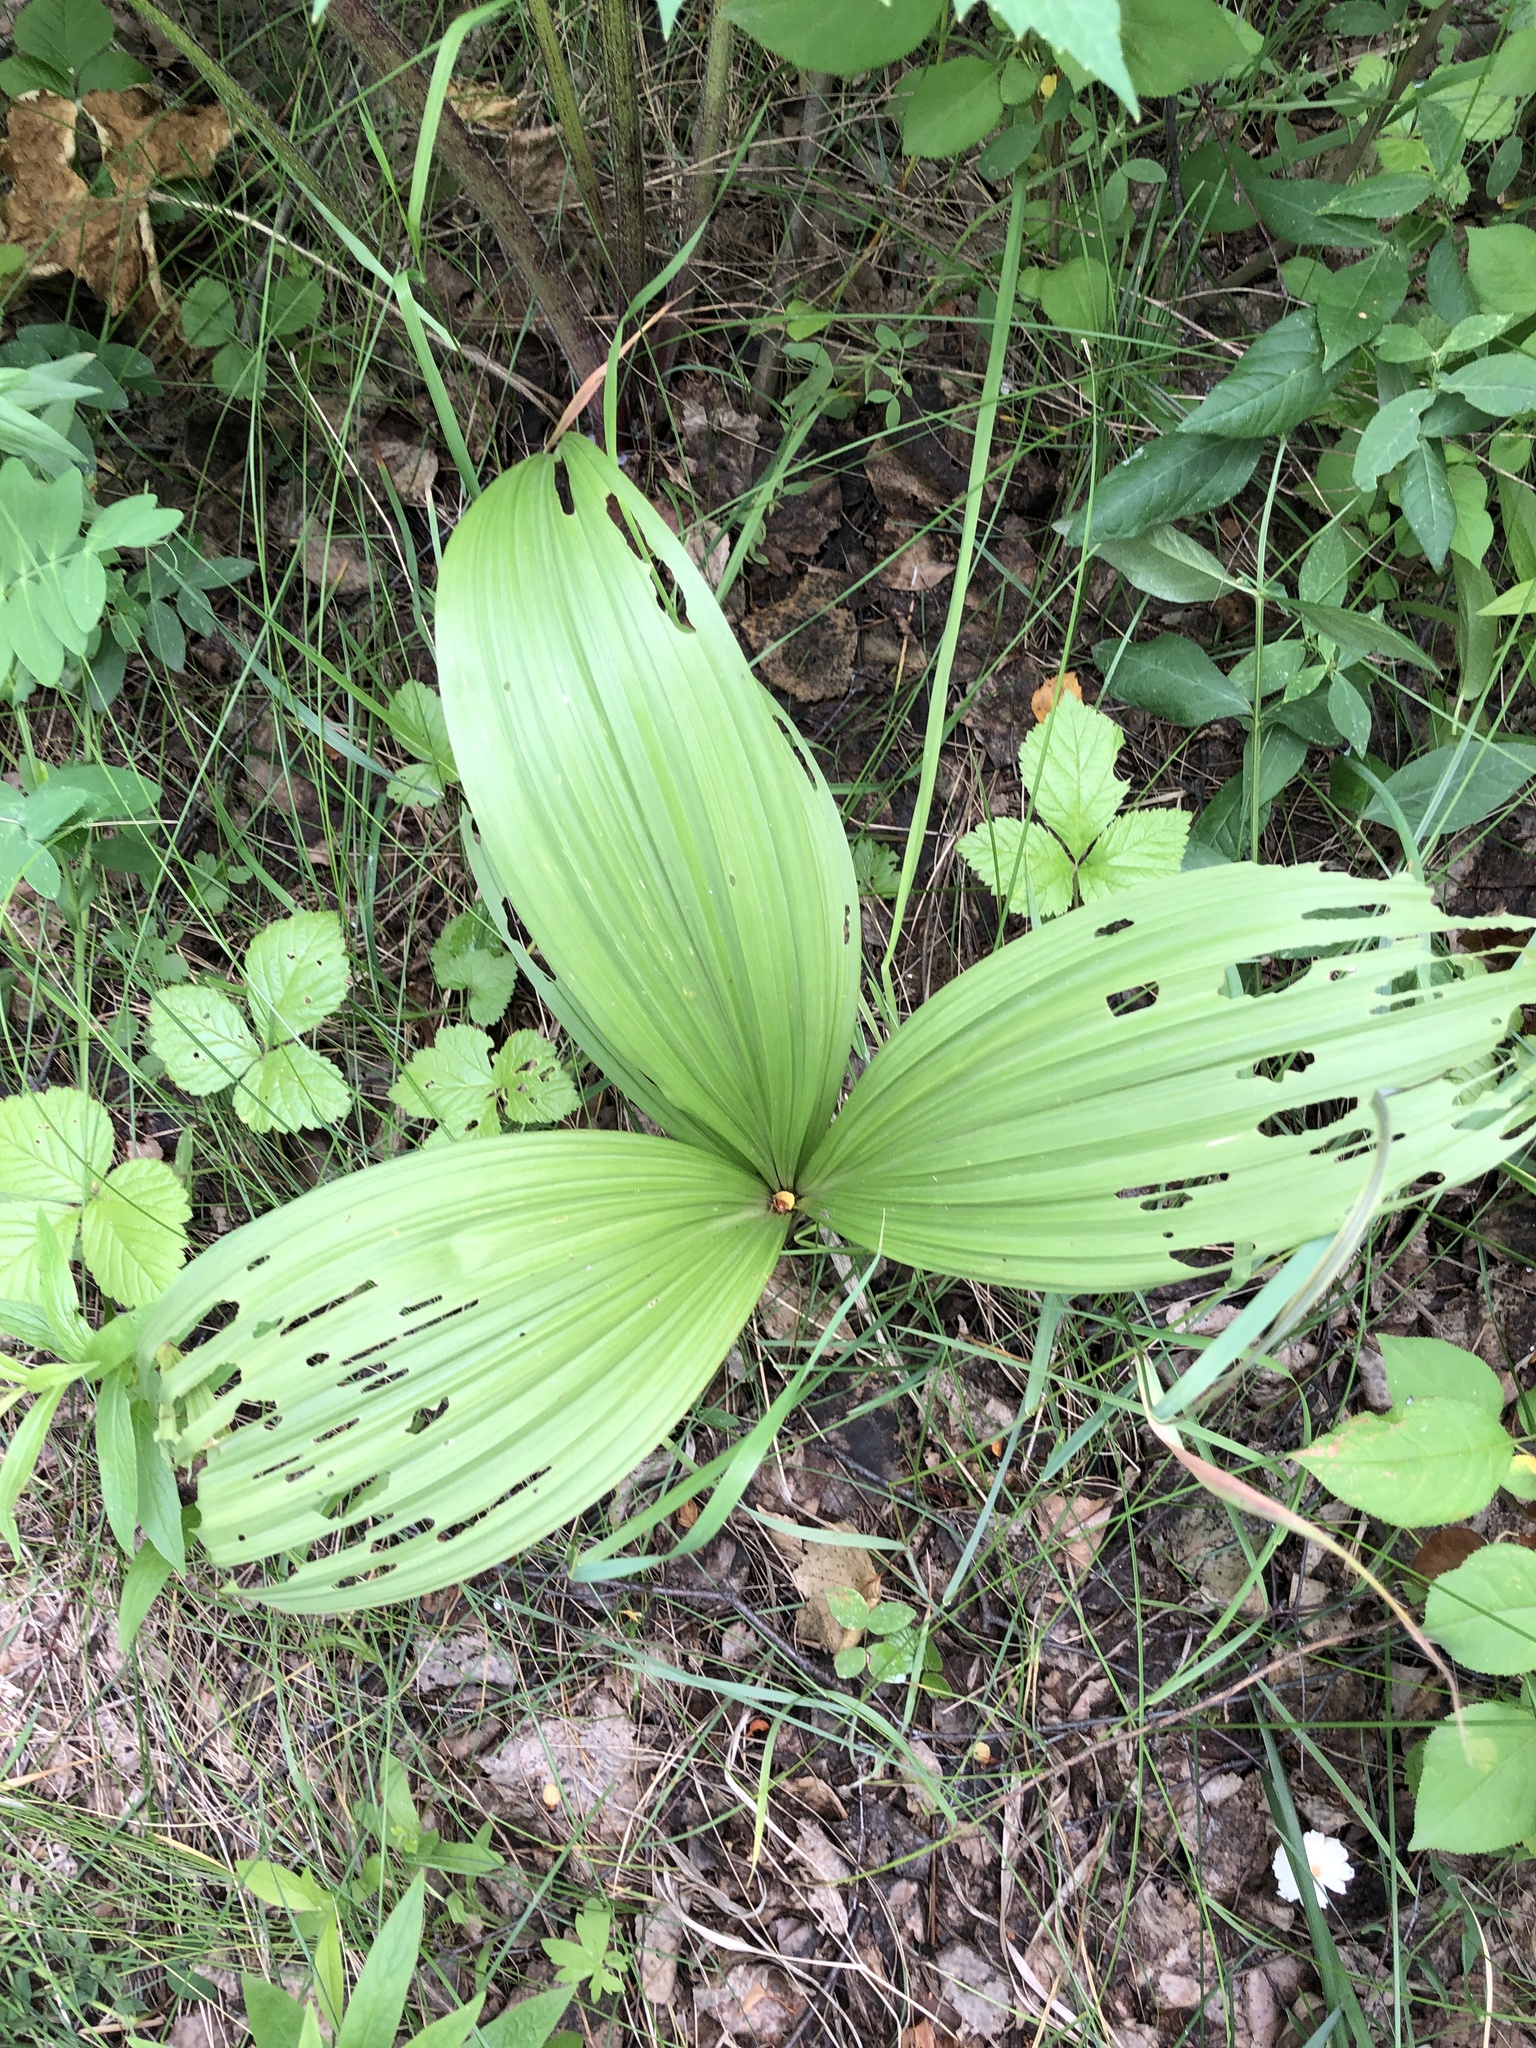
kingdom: Plantae
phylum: Tracheophyta
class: Liliopsida
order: Liliales
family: Melanthiaceae
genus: Veratrum
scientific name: Veratrum lobelianum
